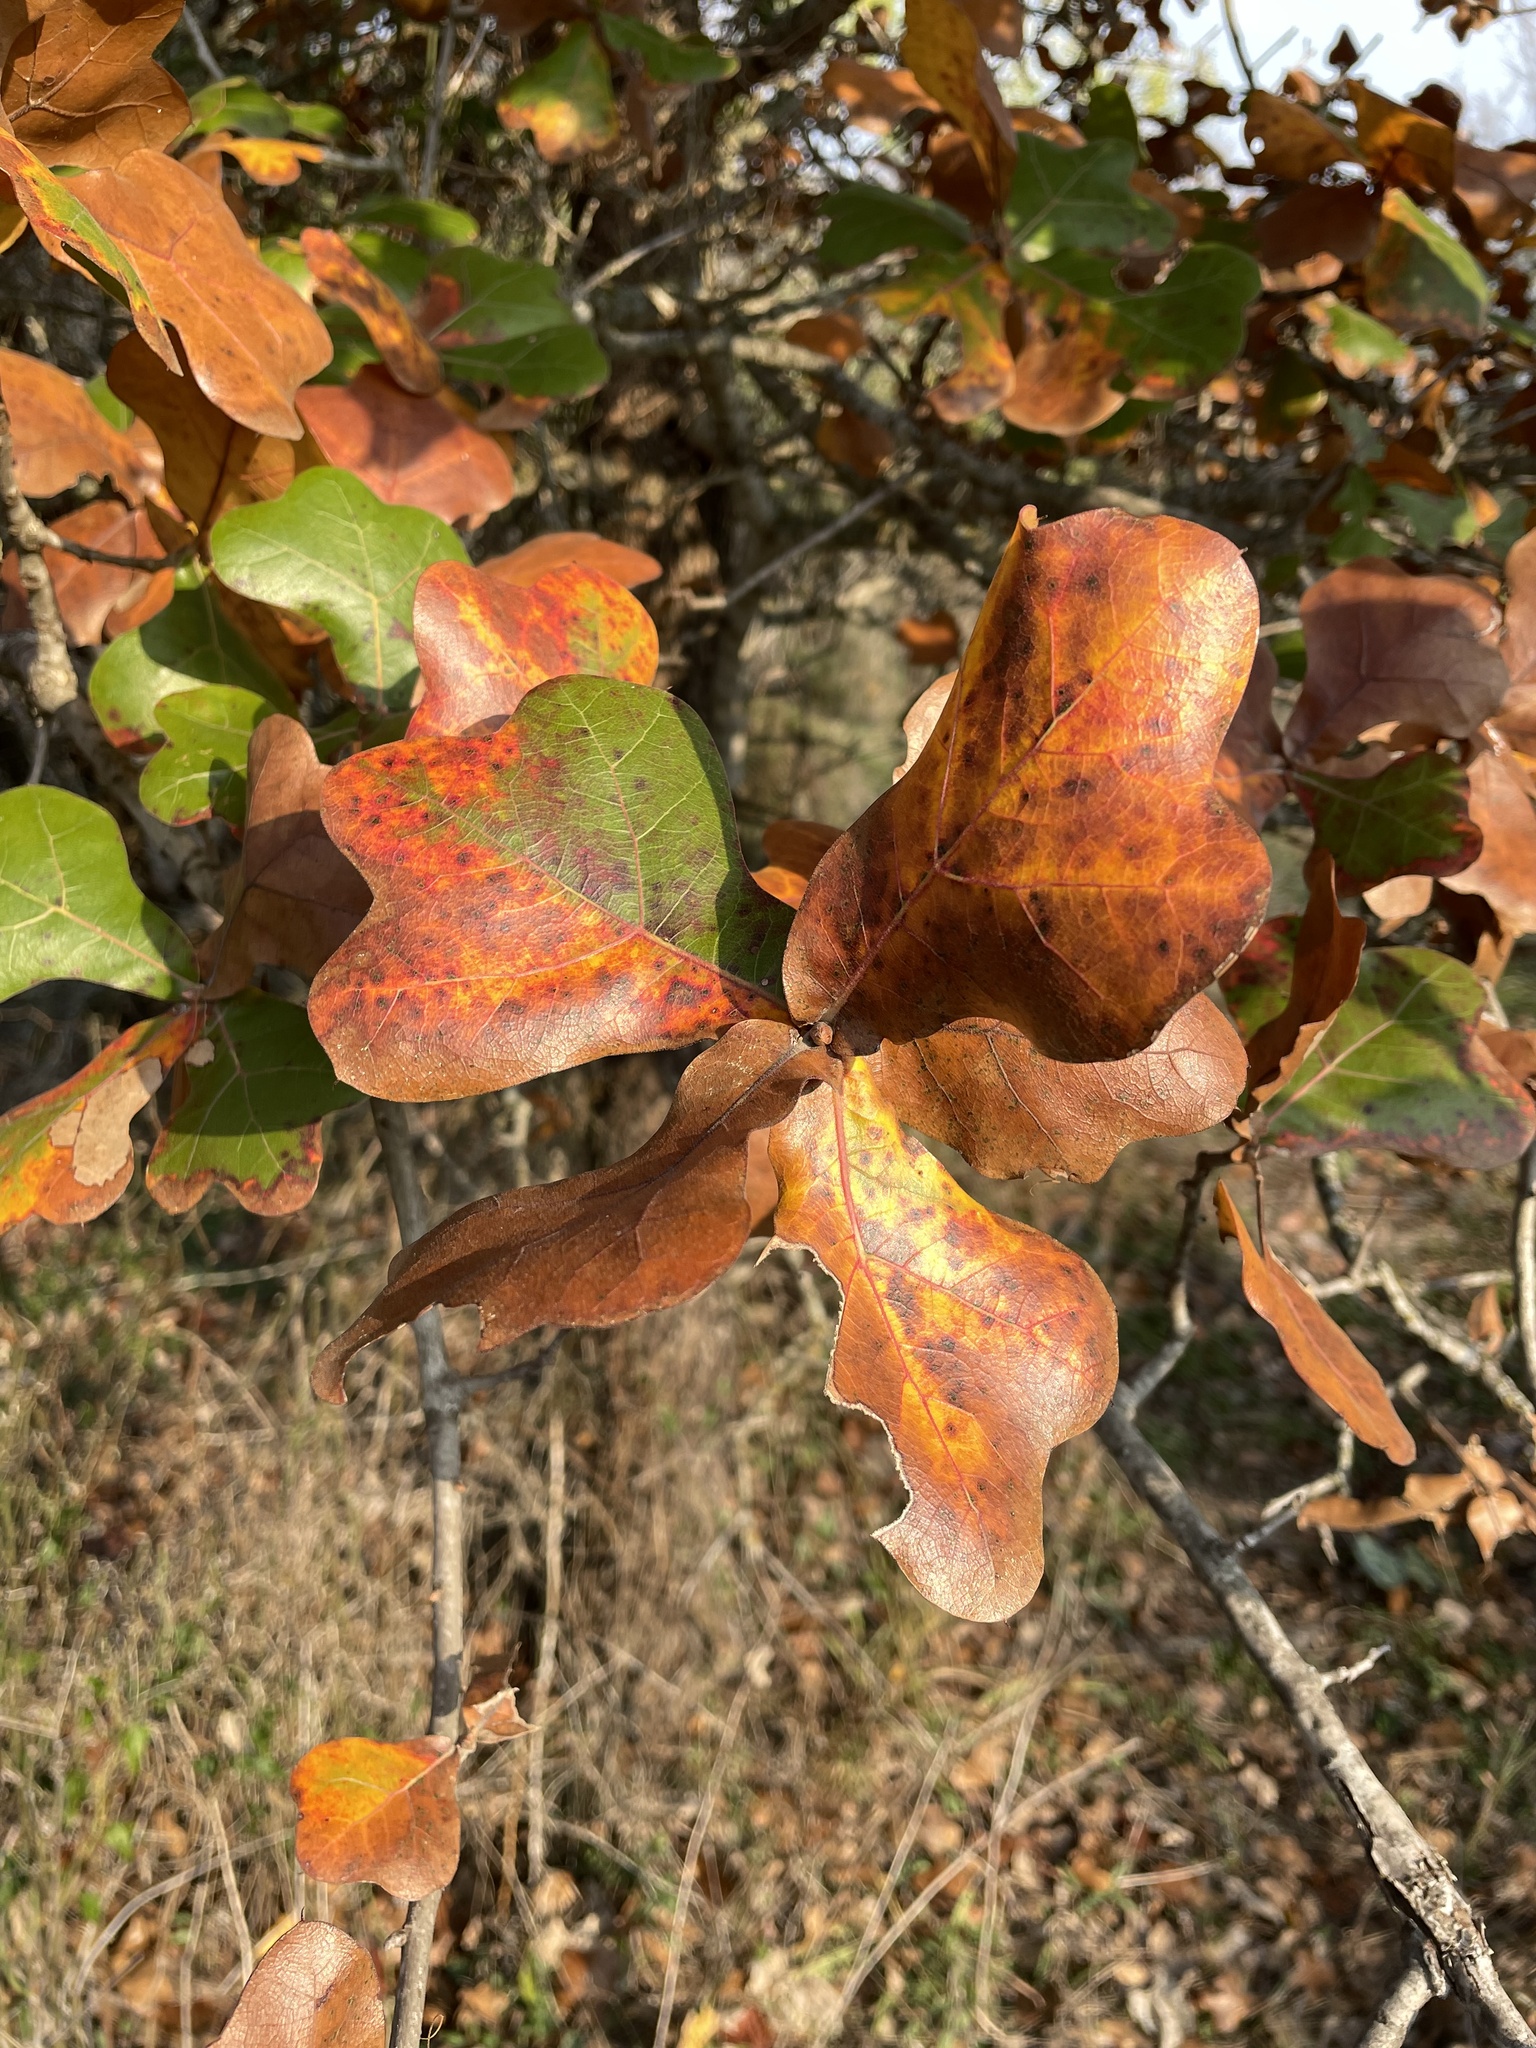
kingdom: Plantae
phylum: Tracheophyta
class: Magnoliopsida
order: Fagales
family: Fagaceae
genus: Quercus
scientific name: Quercus marilandica
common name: Blackjack oak
